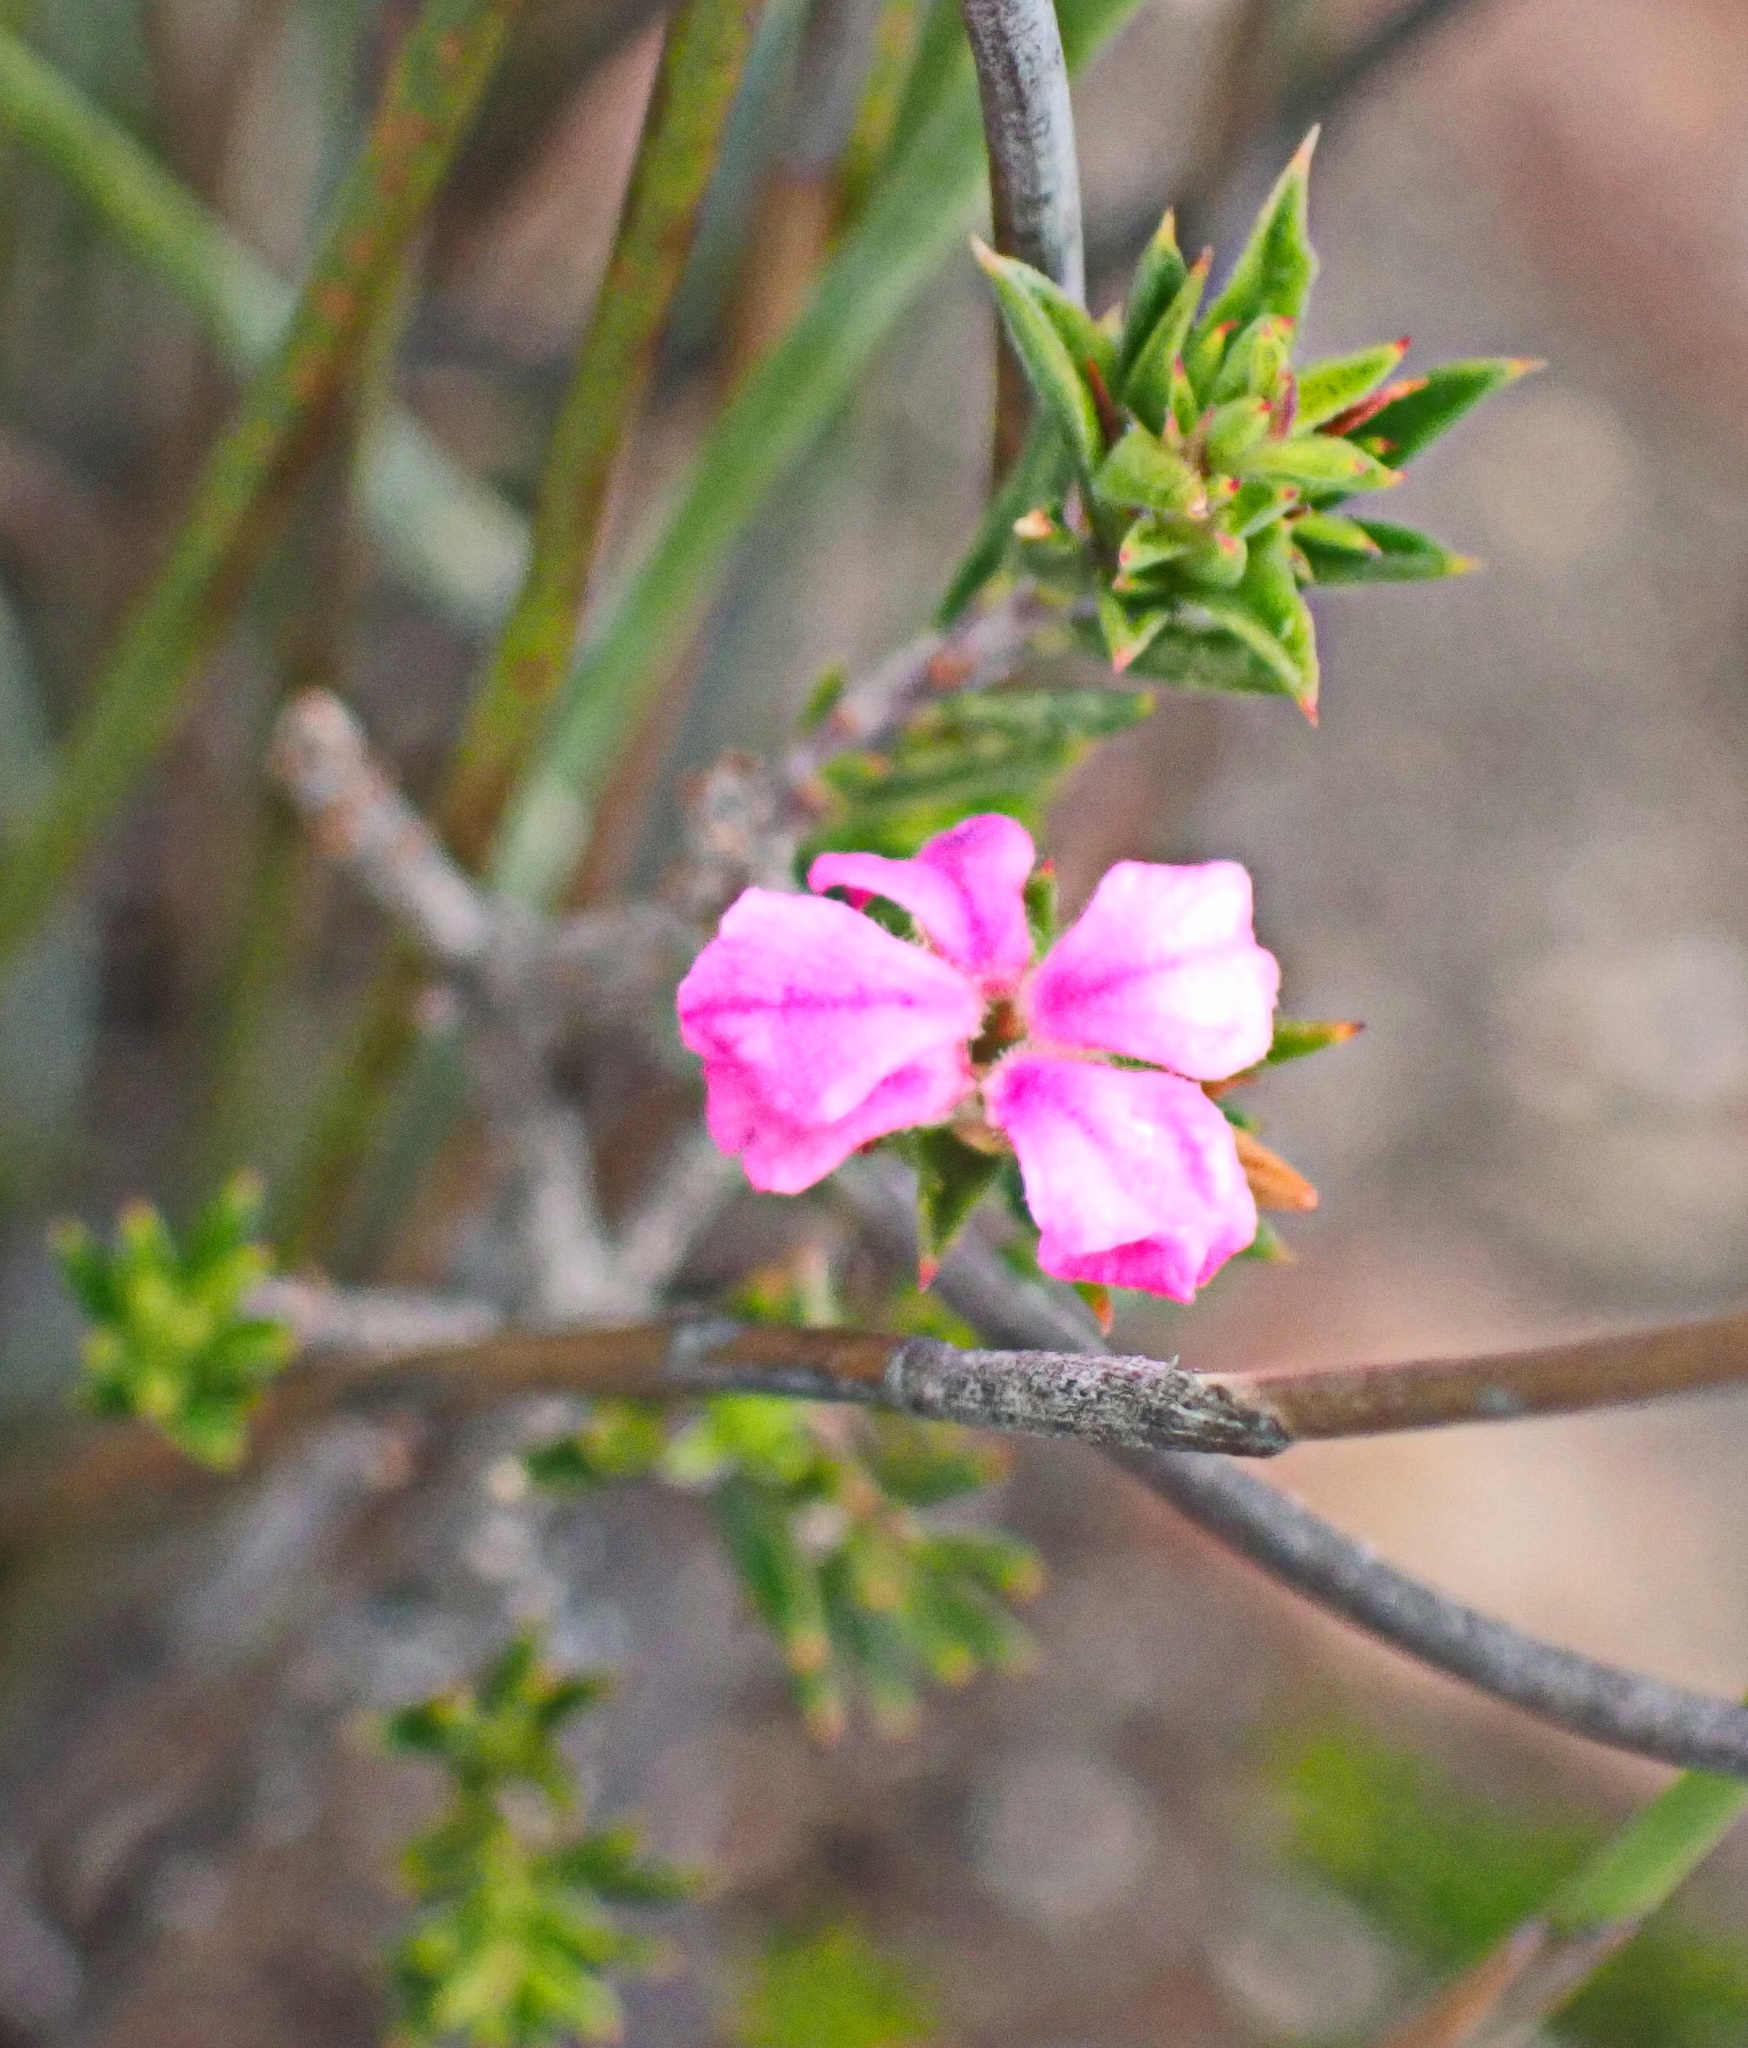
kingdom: Plantae
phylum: Tracheophyta
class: Magnoliopsida
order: Sapindales
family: Rutaceae
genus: Acmadenia
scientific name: Acmadenia maculata
